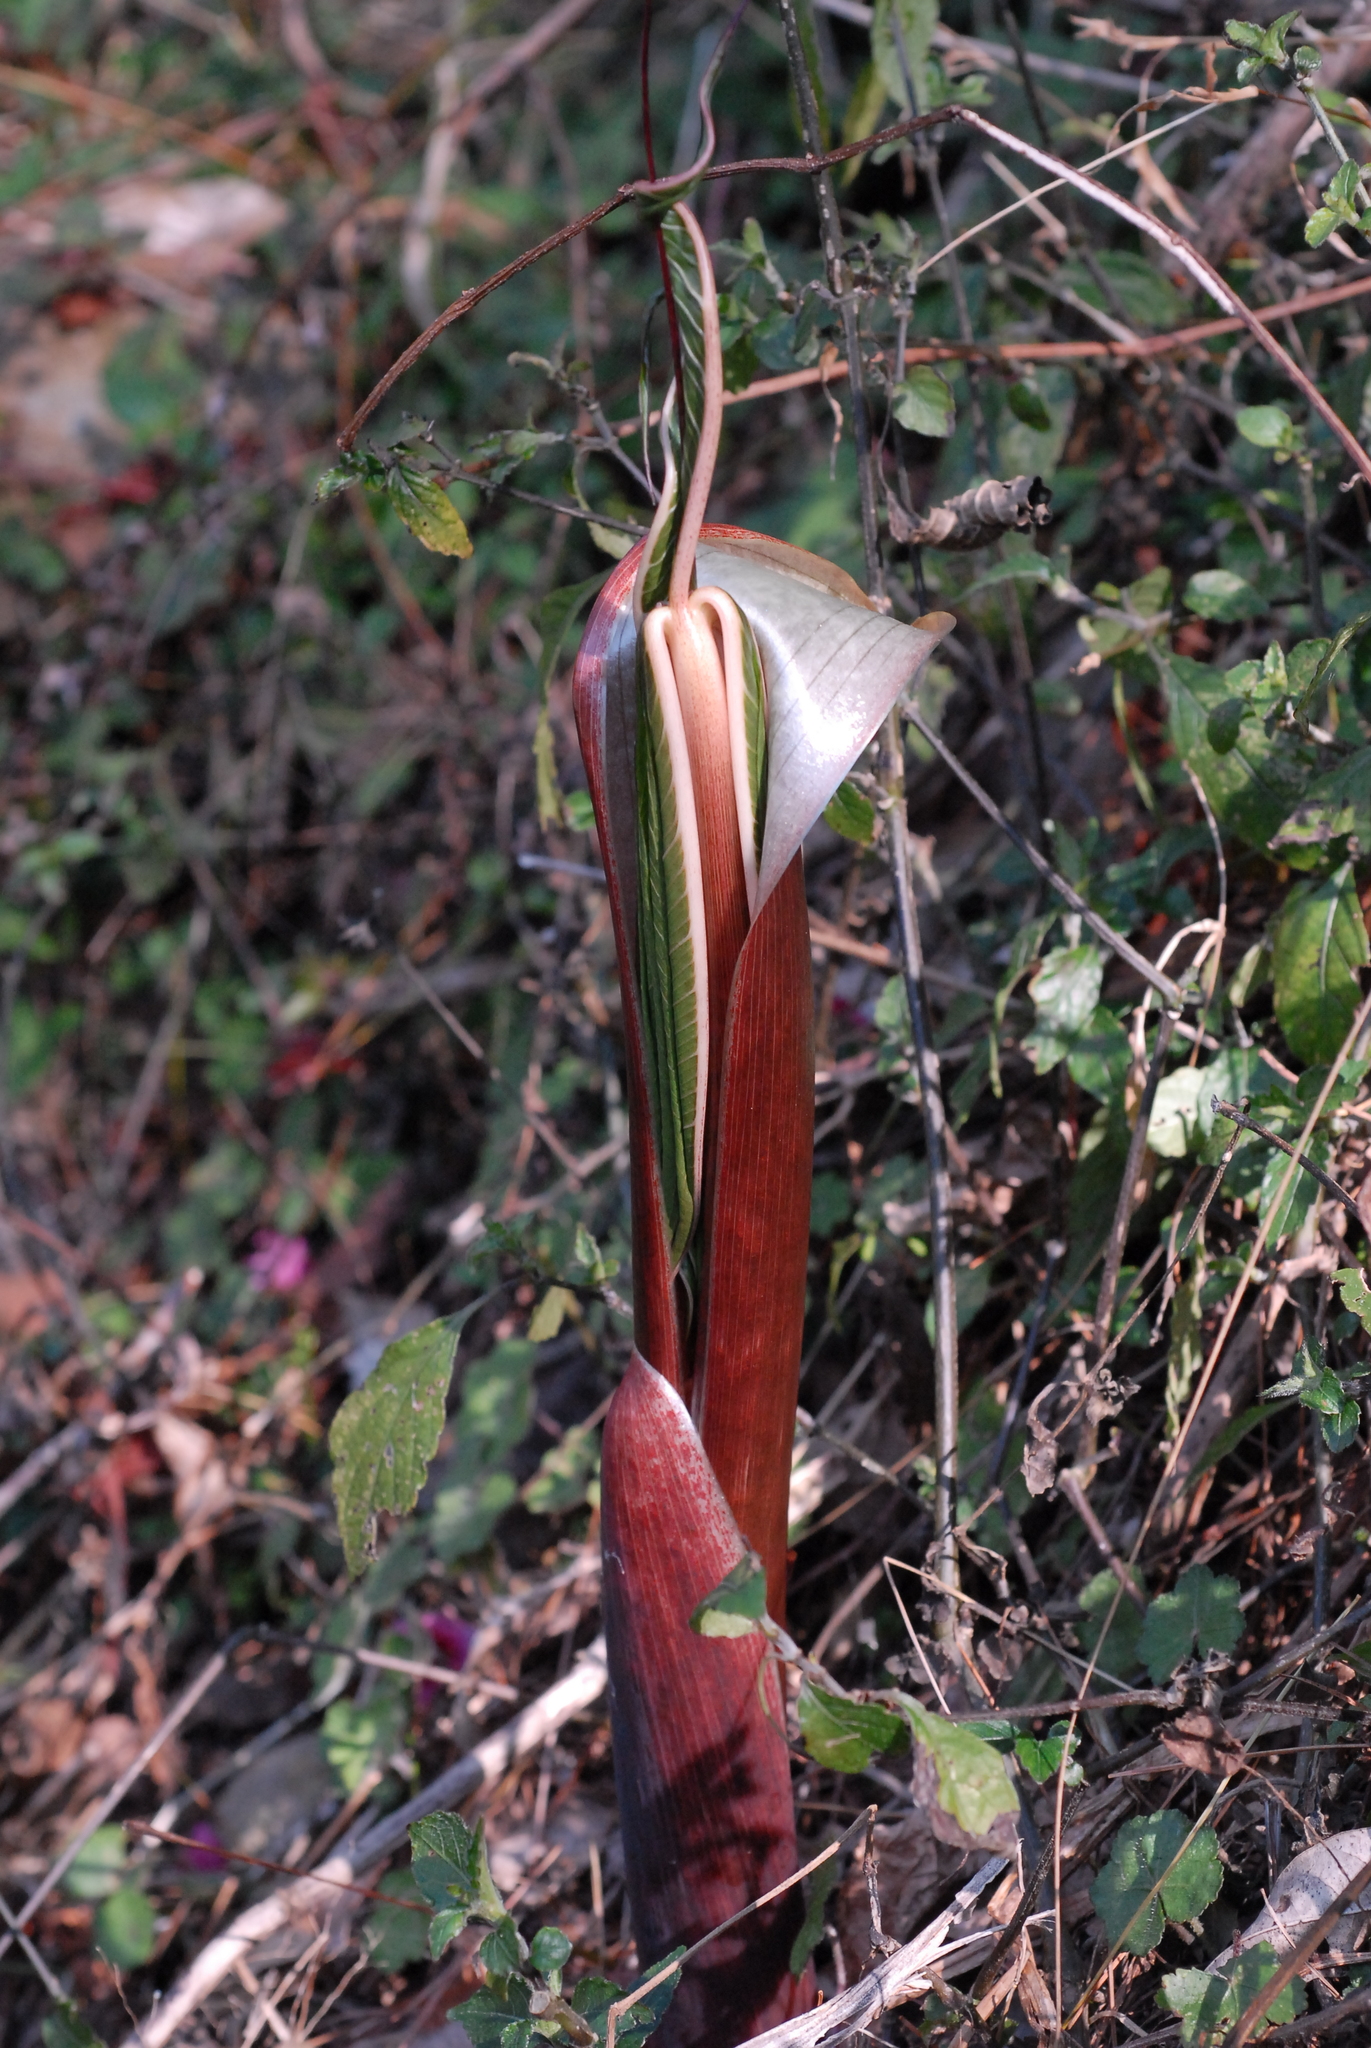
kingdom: Plantae
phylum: Tracheophyta
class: Liliopsida
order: Alismatales
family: Araceae
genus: Arisaema
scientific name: Arisaema taiwanense
